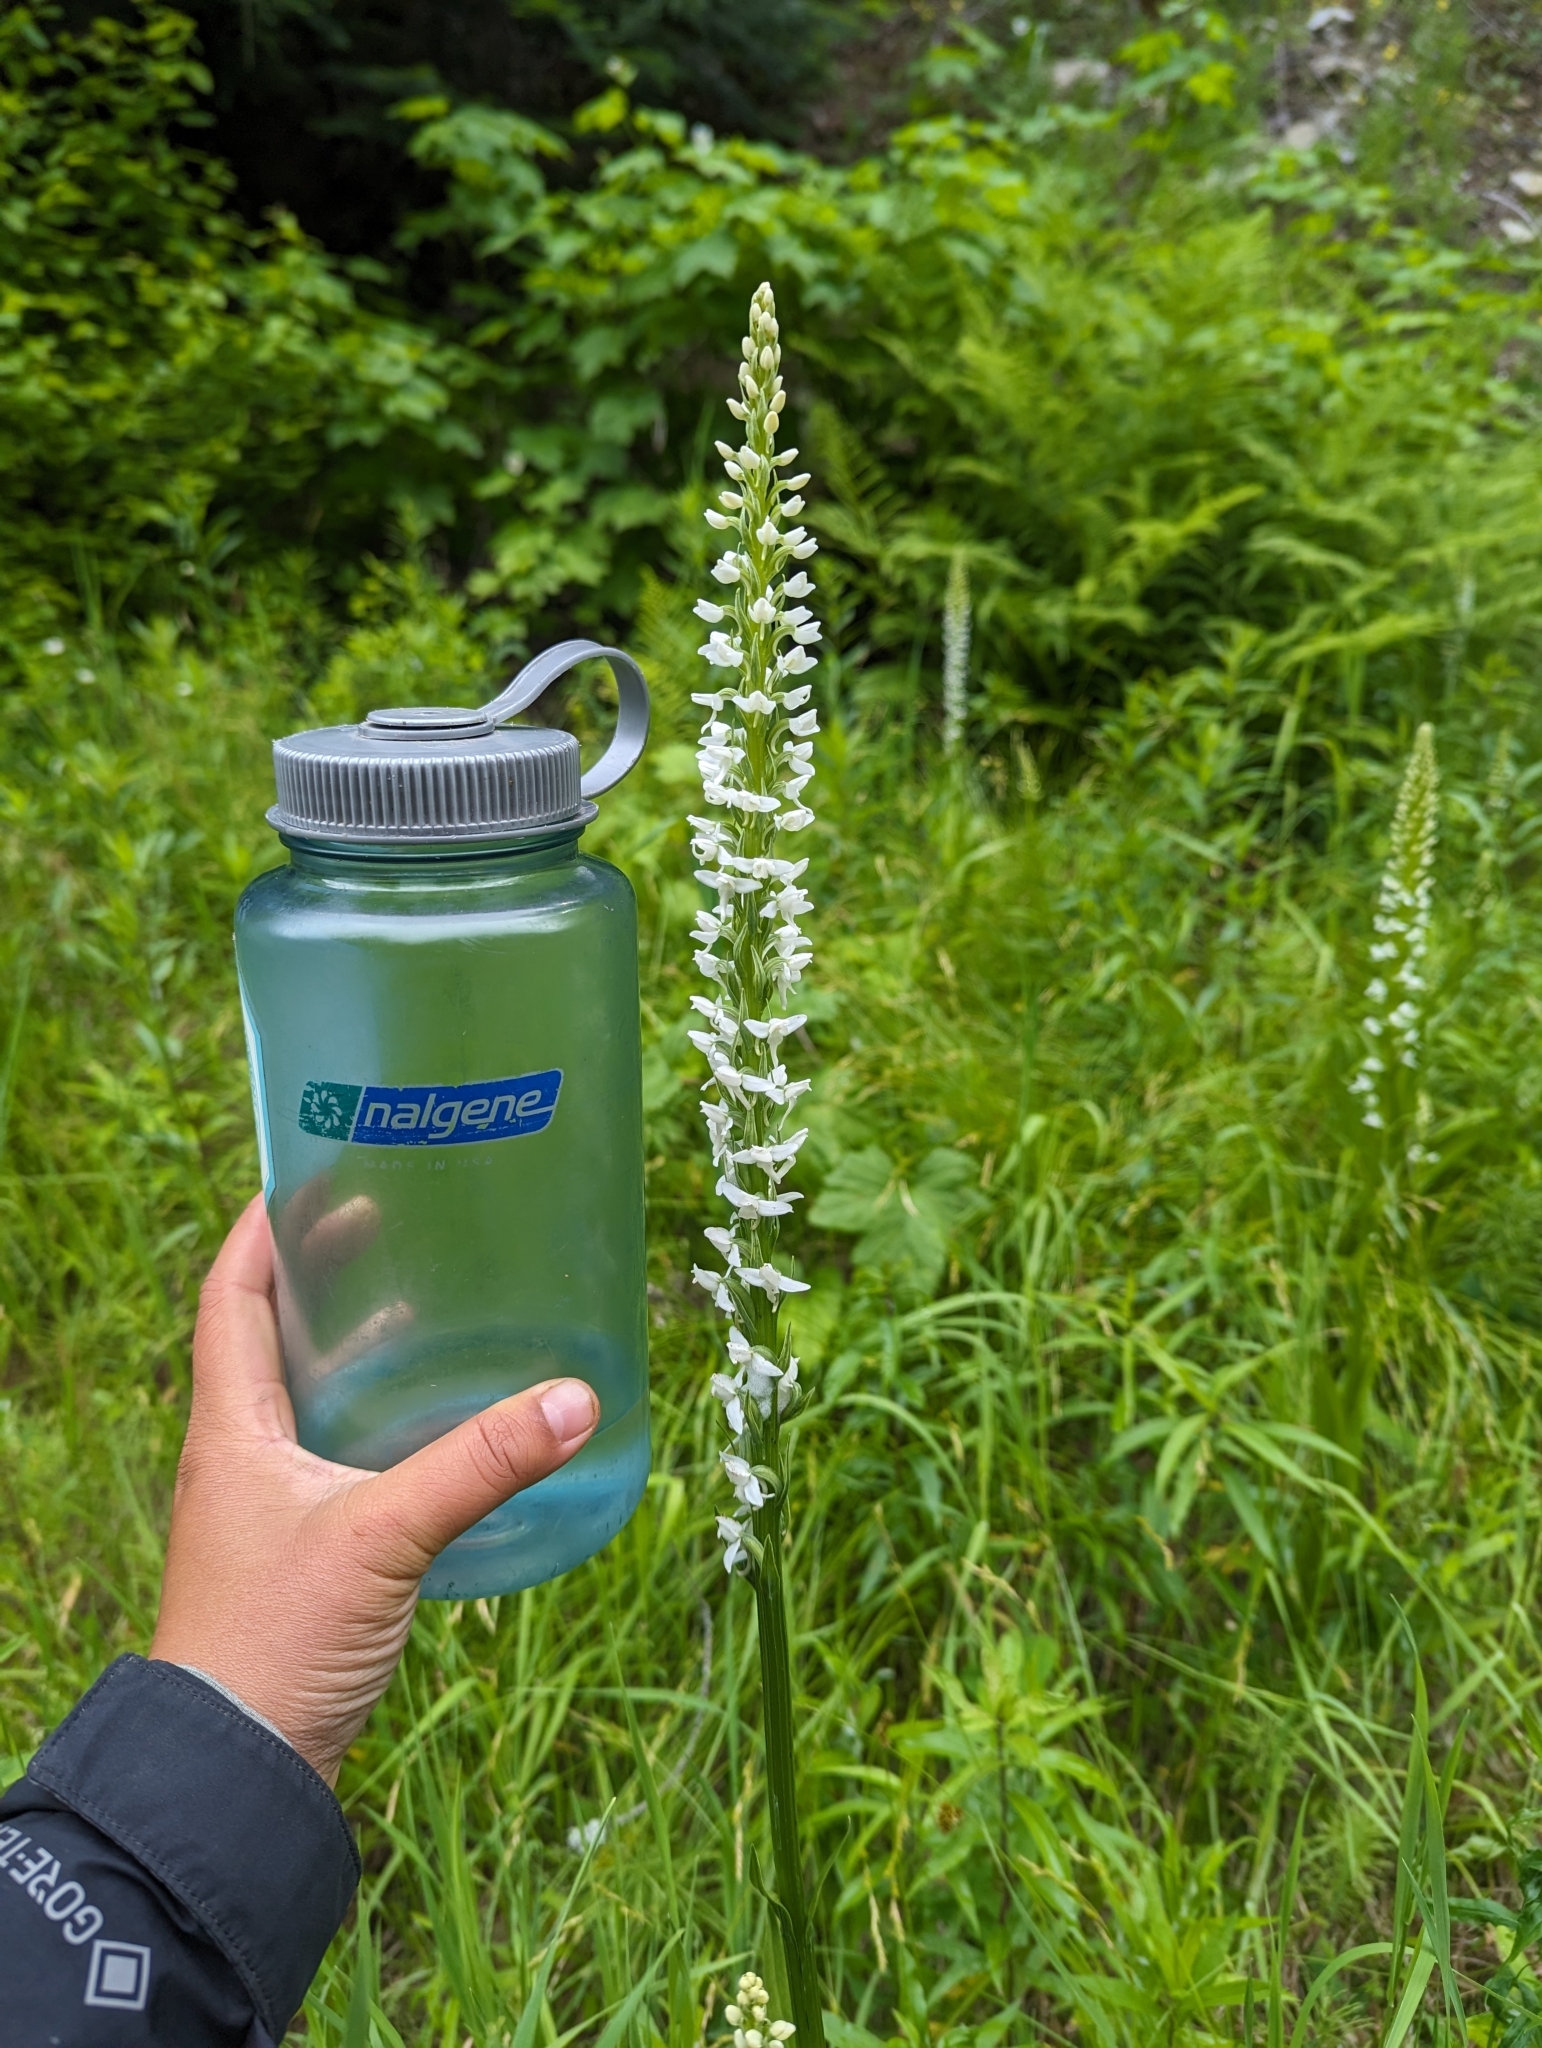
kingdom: Plantae
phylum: Tracheophyta
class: Liliopsida
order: Asparagales
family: Orchidaceae
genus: Platanthera
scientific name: Platanthera dilatata
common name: Bog candles
